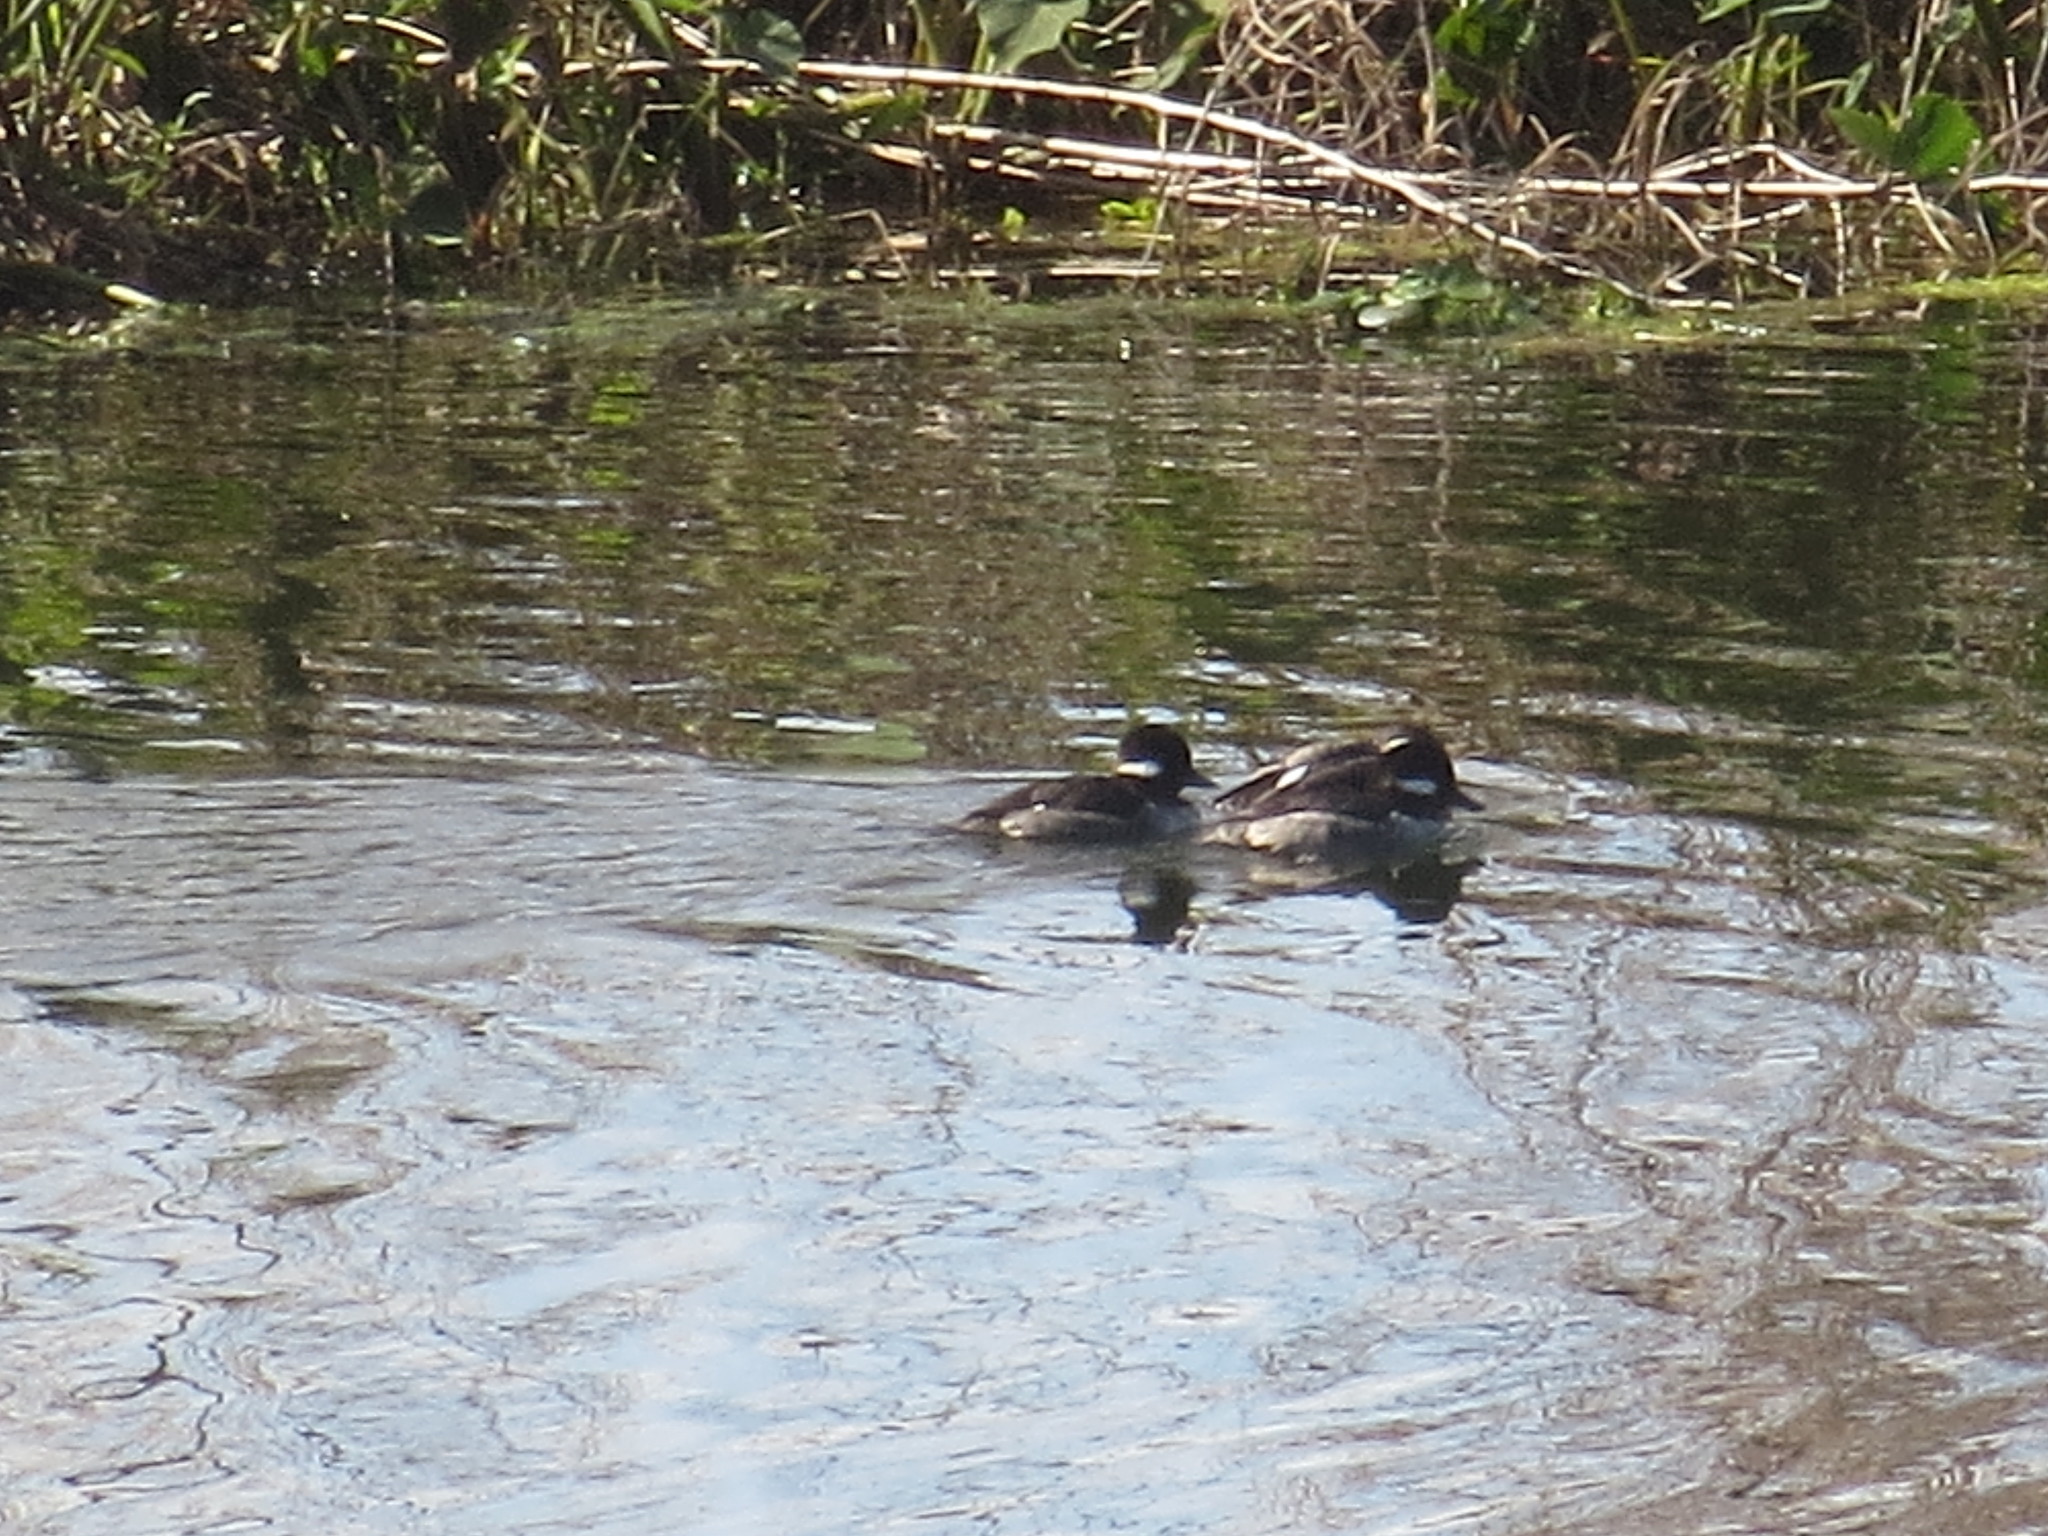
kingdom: Animalia
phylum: Chordata
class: Aves
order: Anseriformes
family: Anatidae
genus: Bucephala
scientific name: Bucephala albeola
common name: Bufflehead
